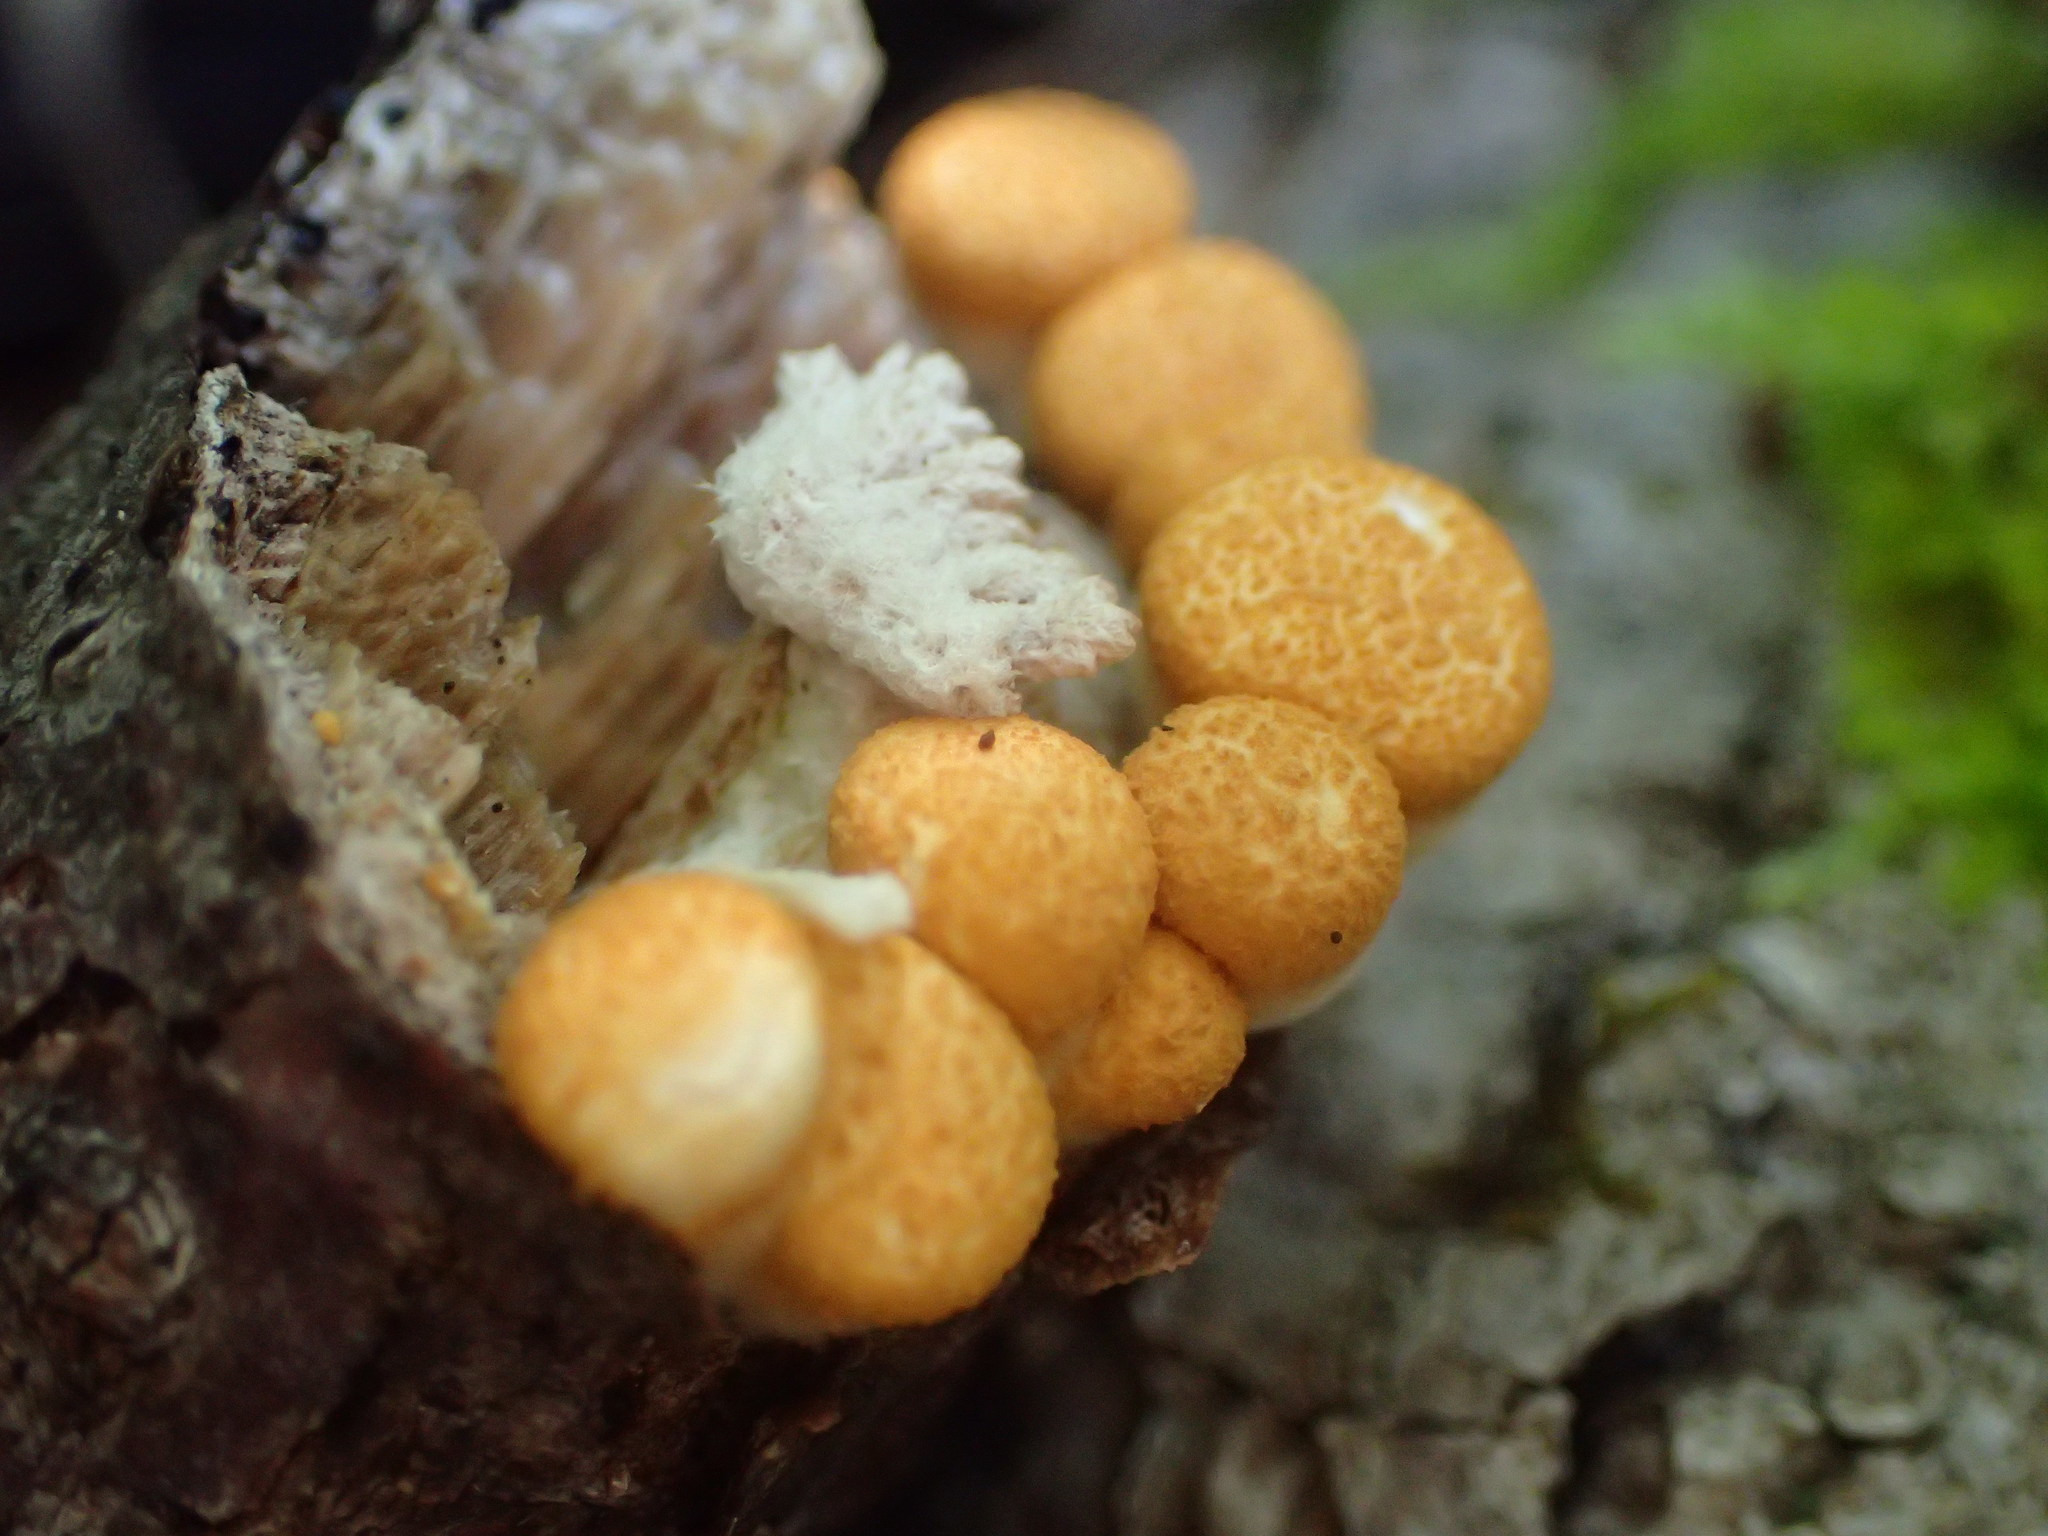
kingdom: Fungi
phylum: Basidiomycota
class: Agaricomycetes
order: Agaricales
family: Nidulariaceae
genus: Crucibulum
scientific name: Crucibulum laeve
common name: Common bird's nest
